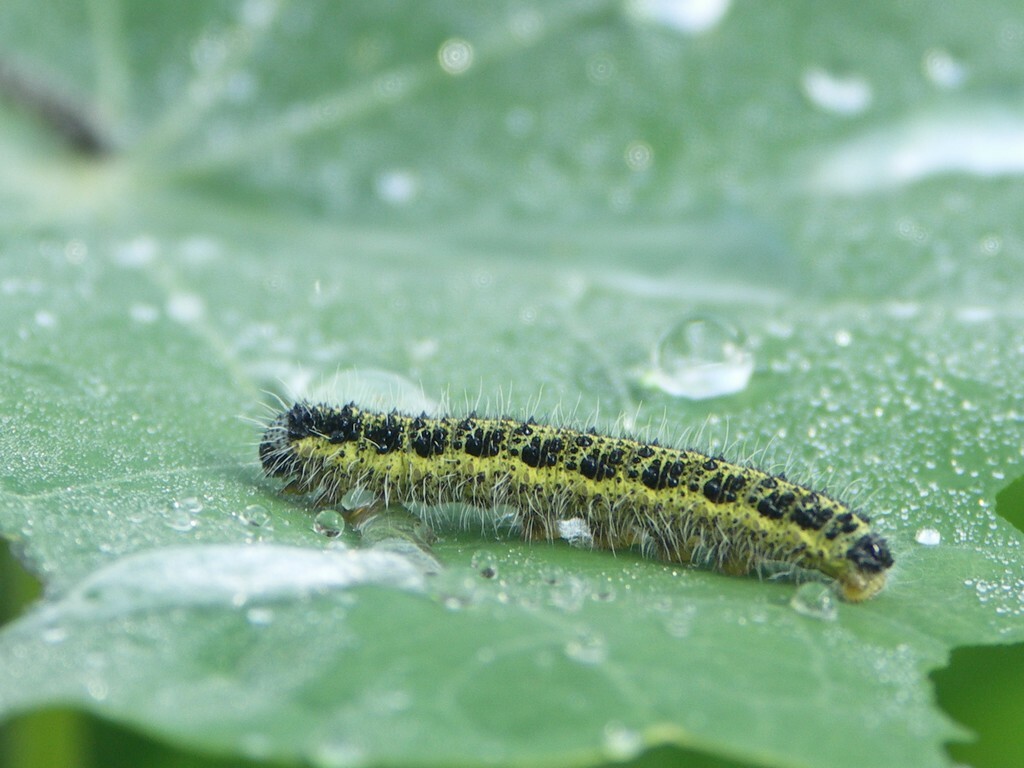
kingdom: Animalia
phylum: Arthropoda
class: Insecta
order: Lepidoptera
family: Pieridae
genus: Pieris
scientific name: Pieris brassicae
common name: Large white
